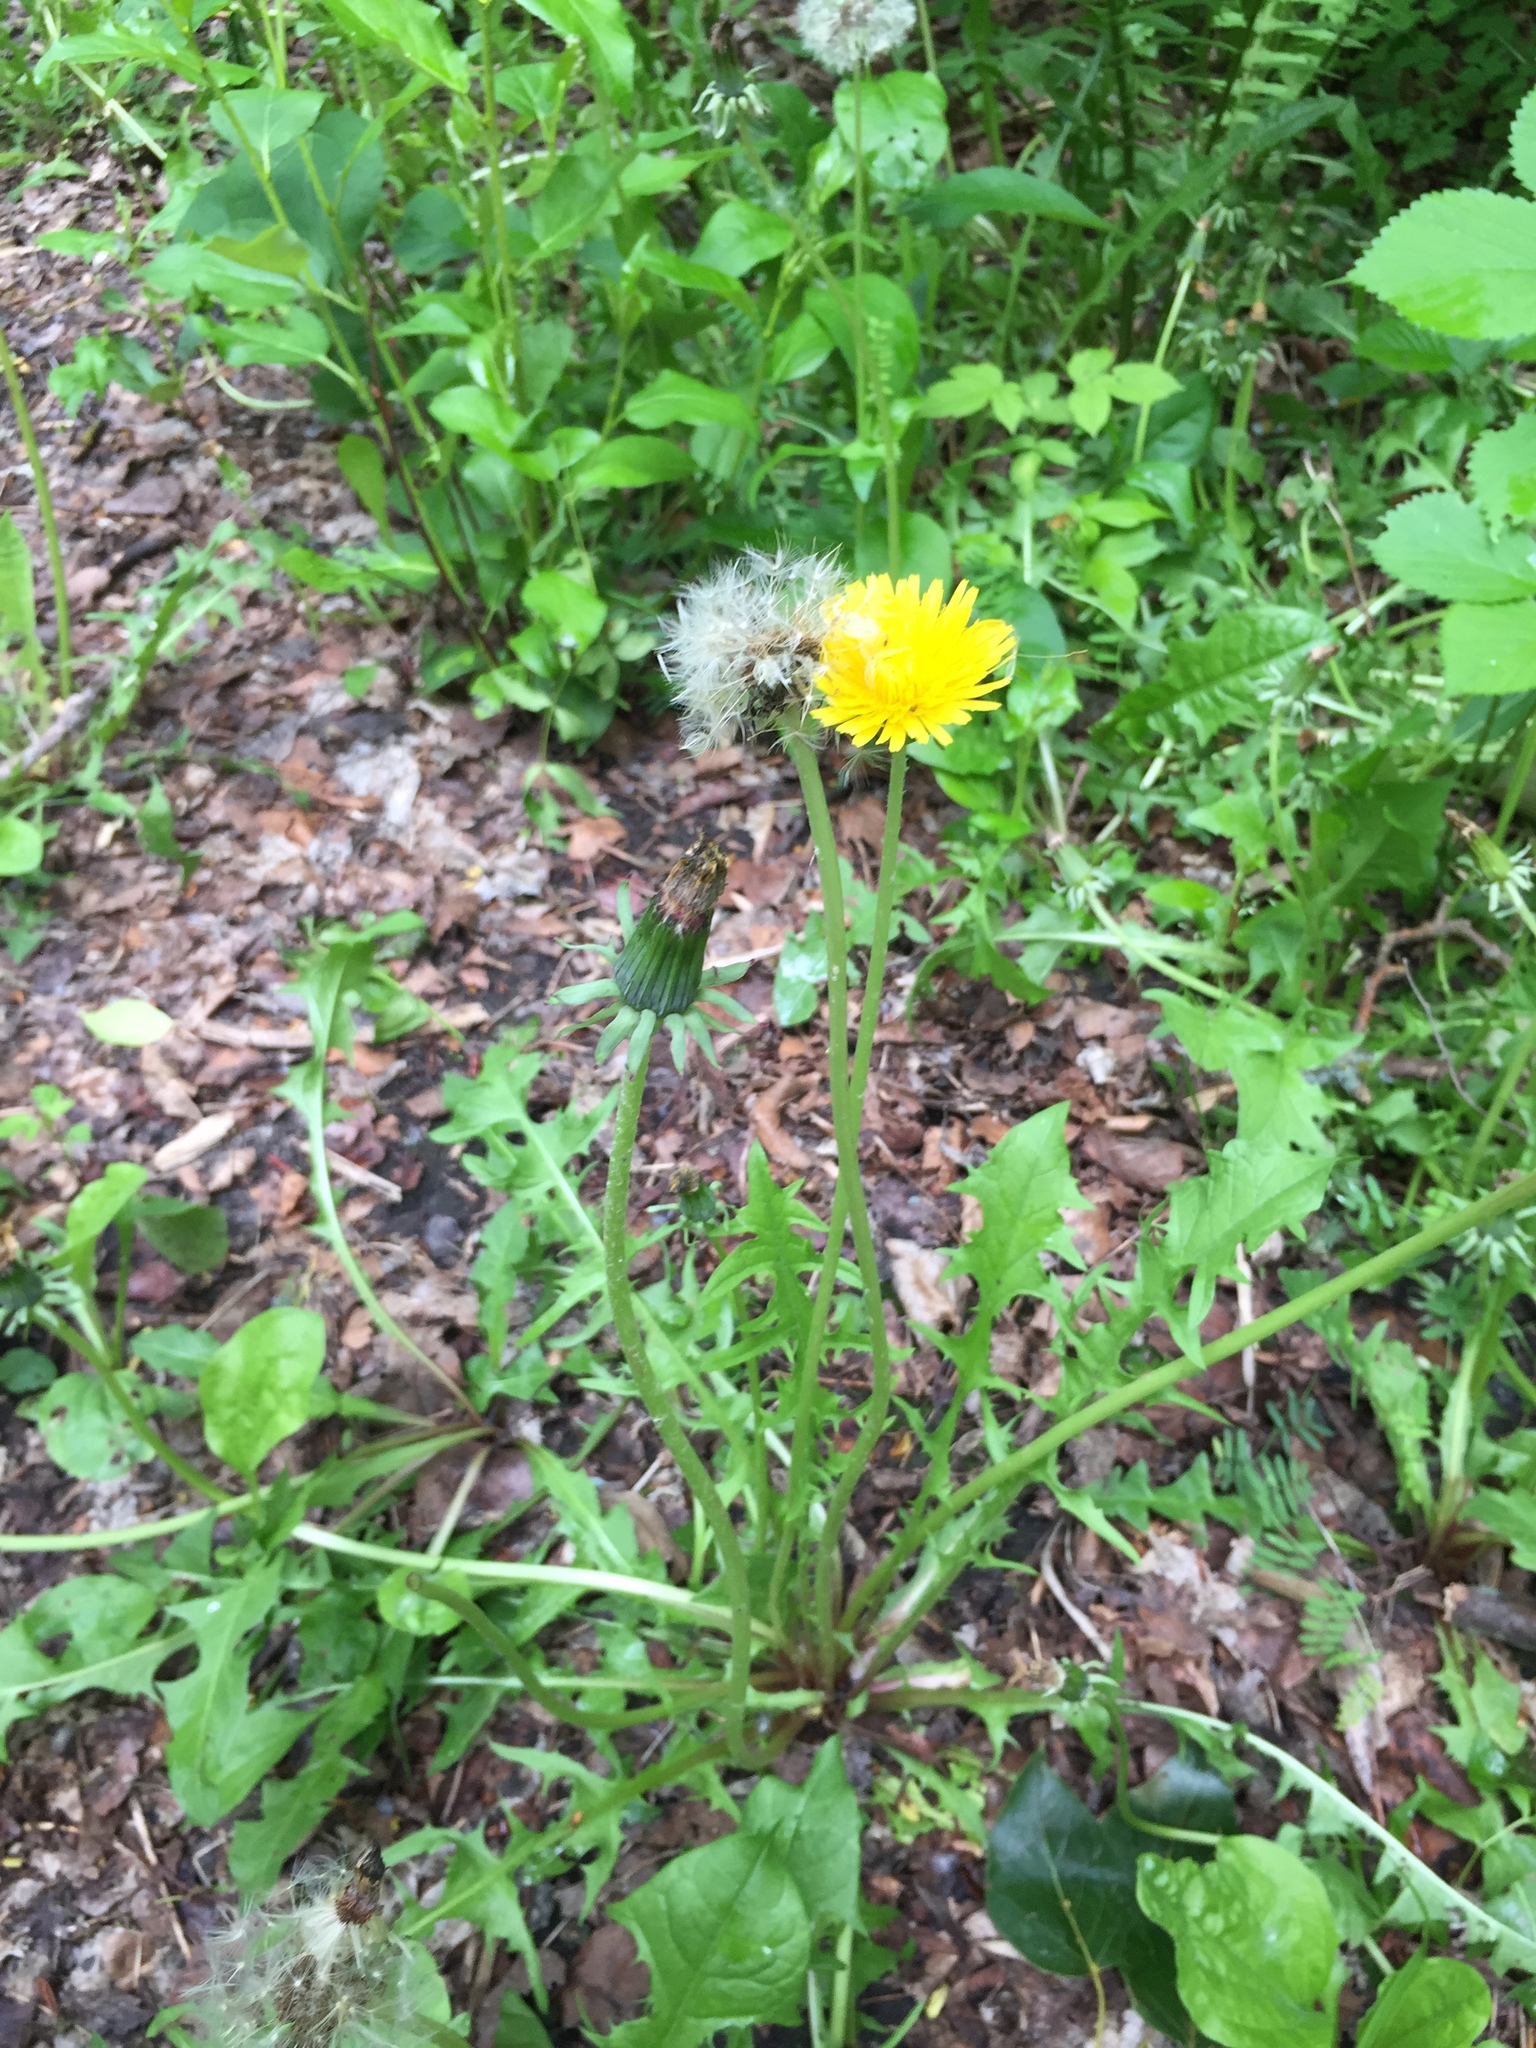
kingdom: Plantae
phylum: Tracheophyta
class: Magnoliopsida
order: Asterales
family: Asteraceae
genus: Taraxacum
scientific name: Taraxacum officinale
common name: Common dandelion
